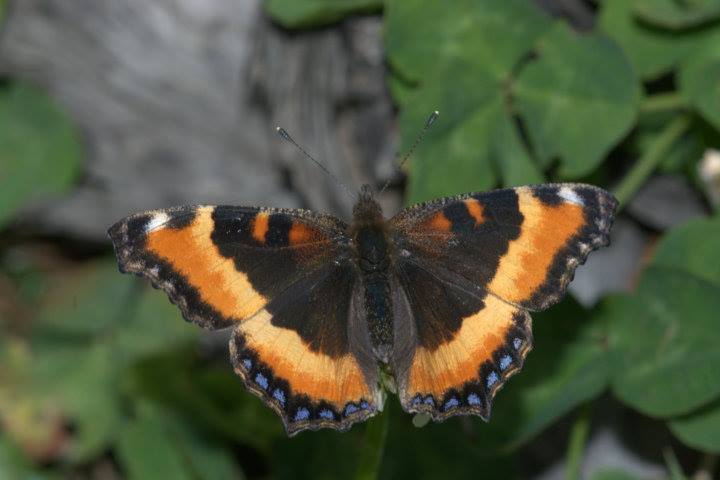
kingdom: Animalia
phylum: Arthropoda
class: Insecta
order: Lepidoptera
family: Nymphalidae
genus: Aglais
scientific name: Aglais milberti
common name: Milbert's tortoiseshell
